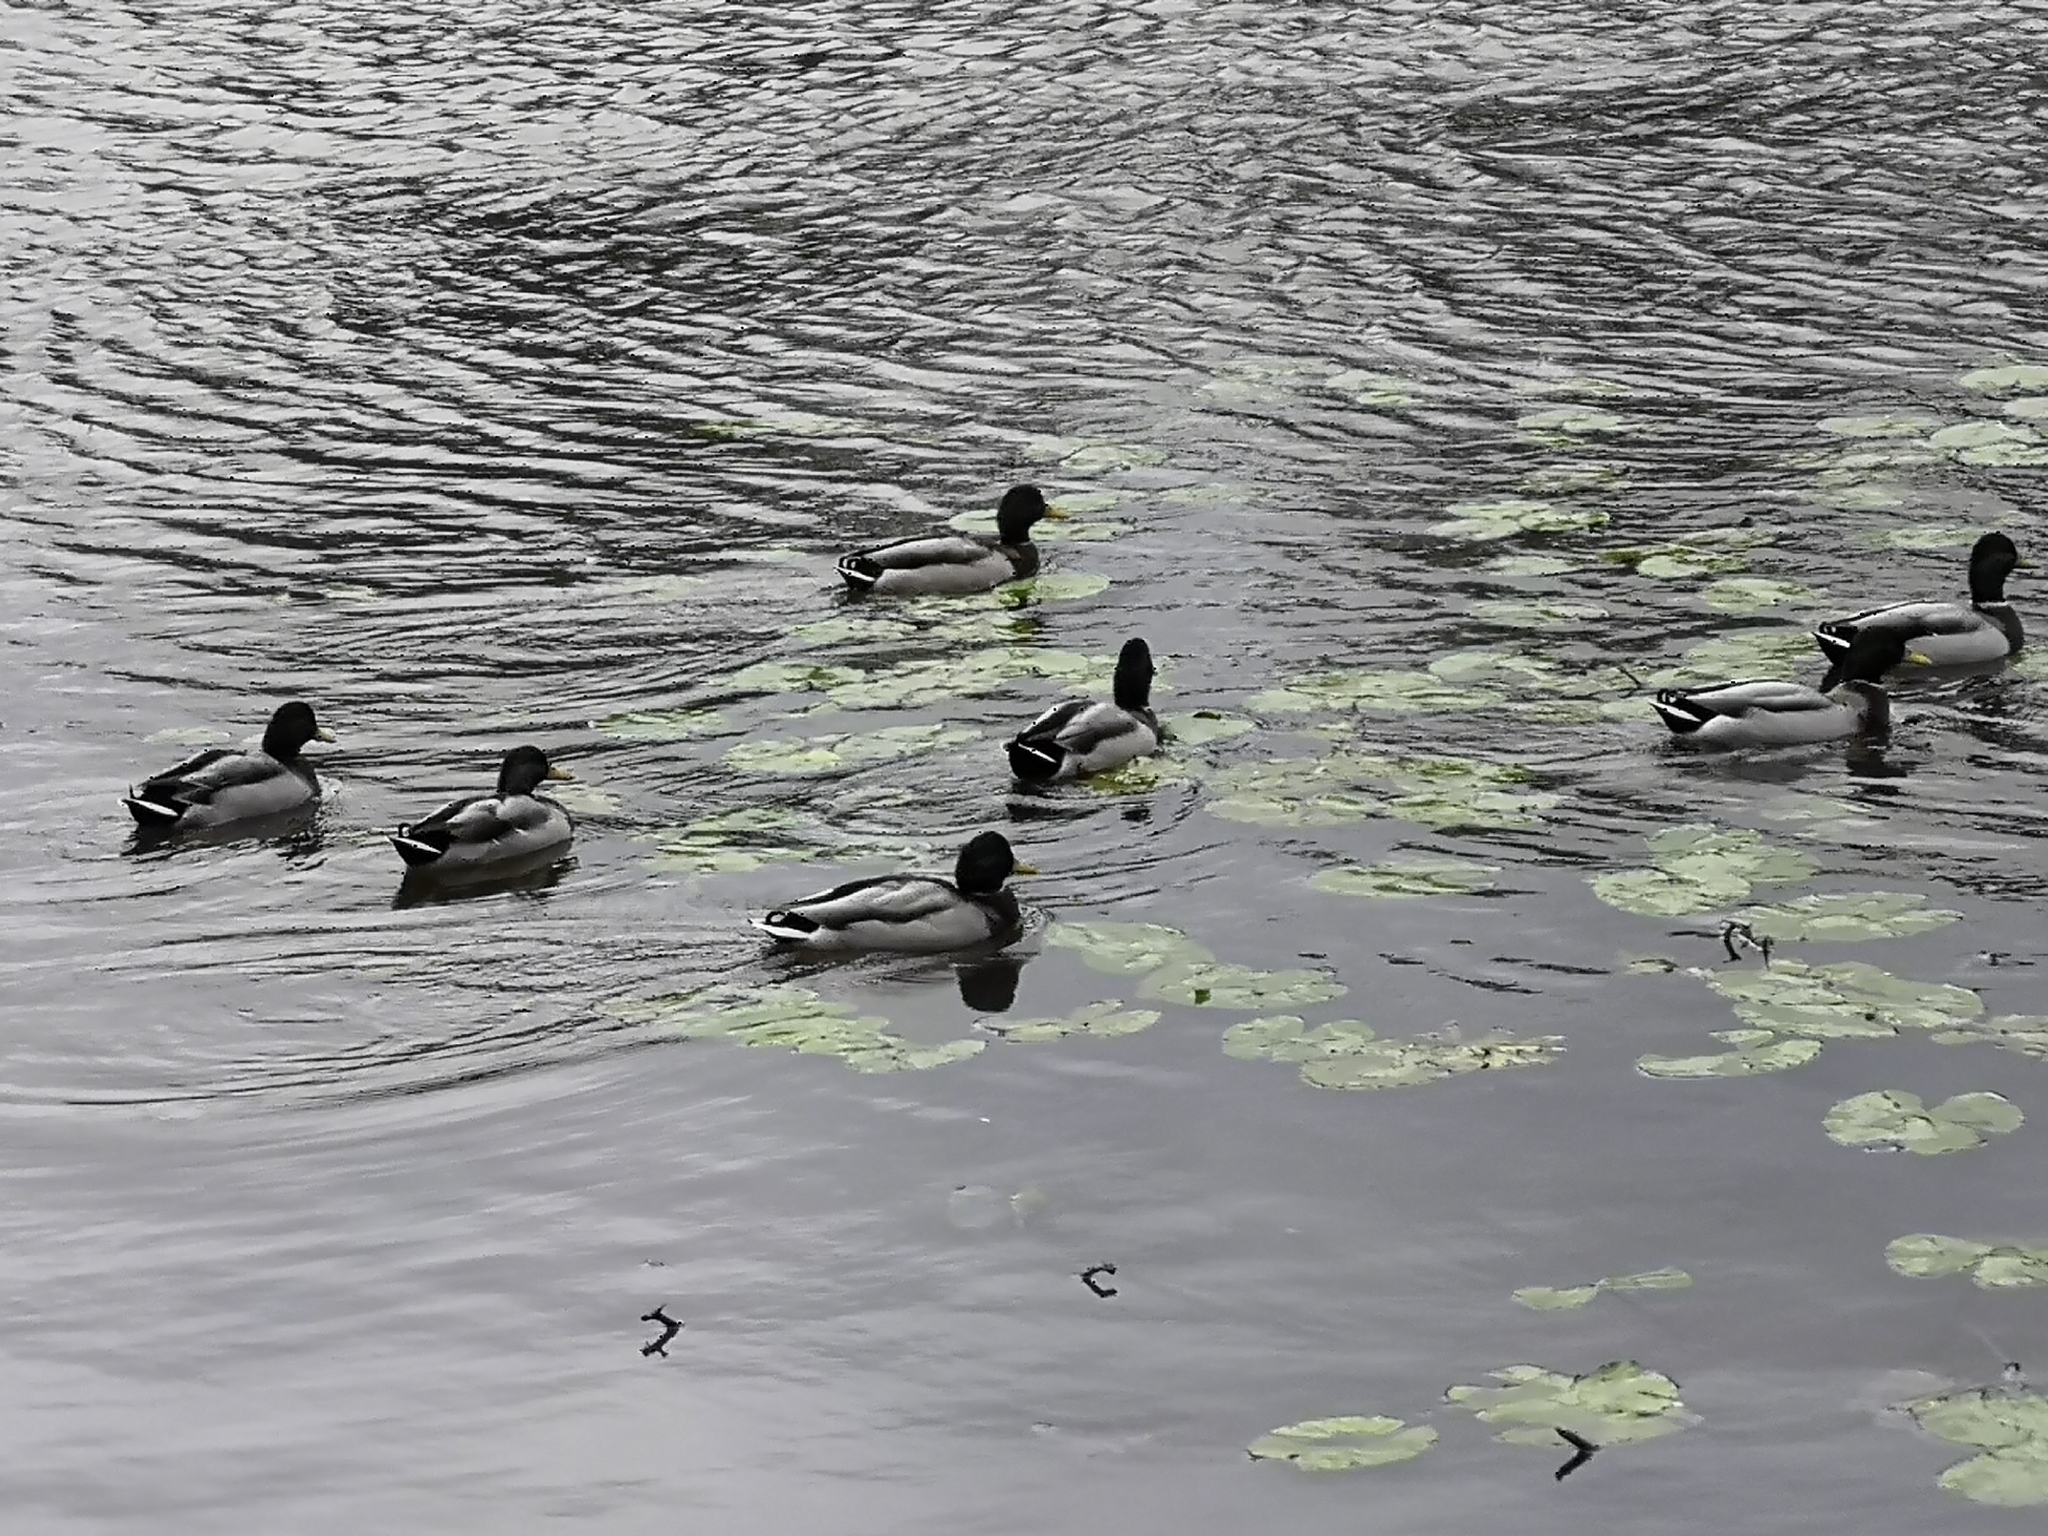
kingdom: Animalia
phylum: Chordata
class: Aves
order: Anseriformes
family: Anatidae
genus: Anas
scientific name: Anas platyrhynchos
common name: Mallard
